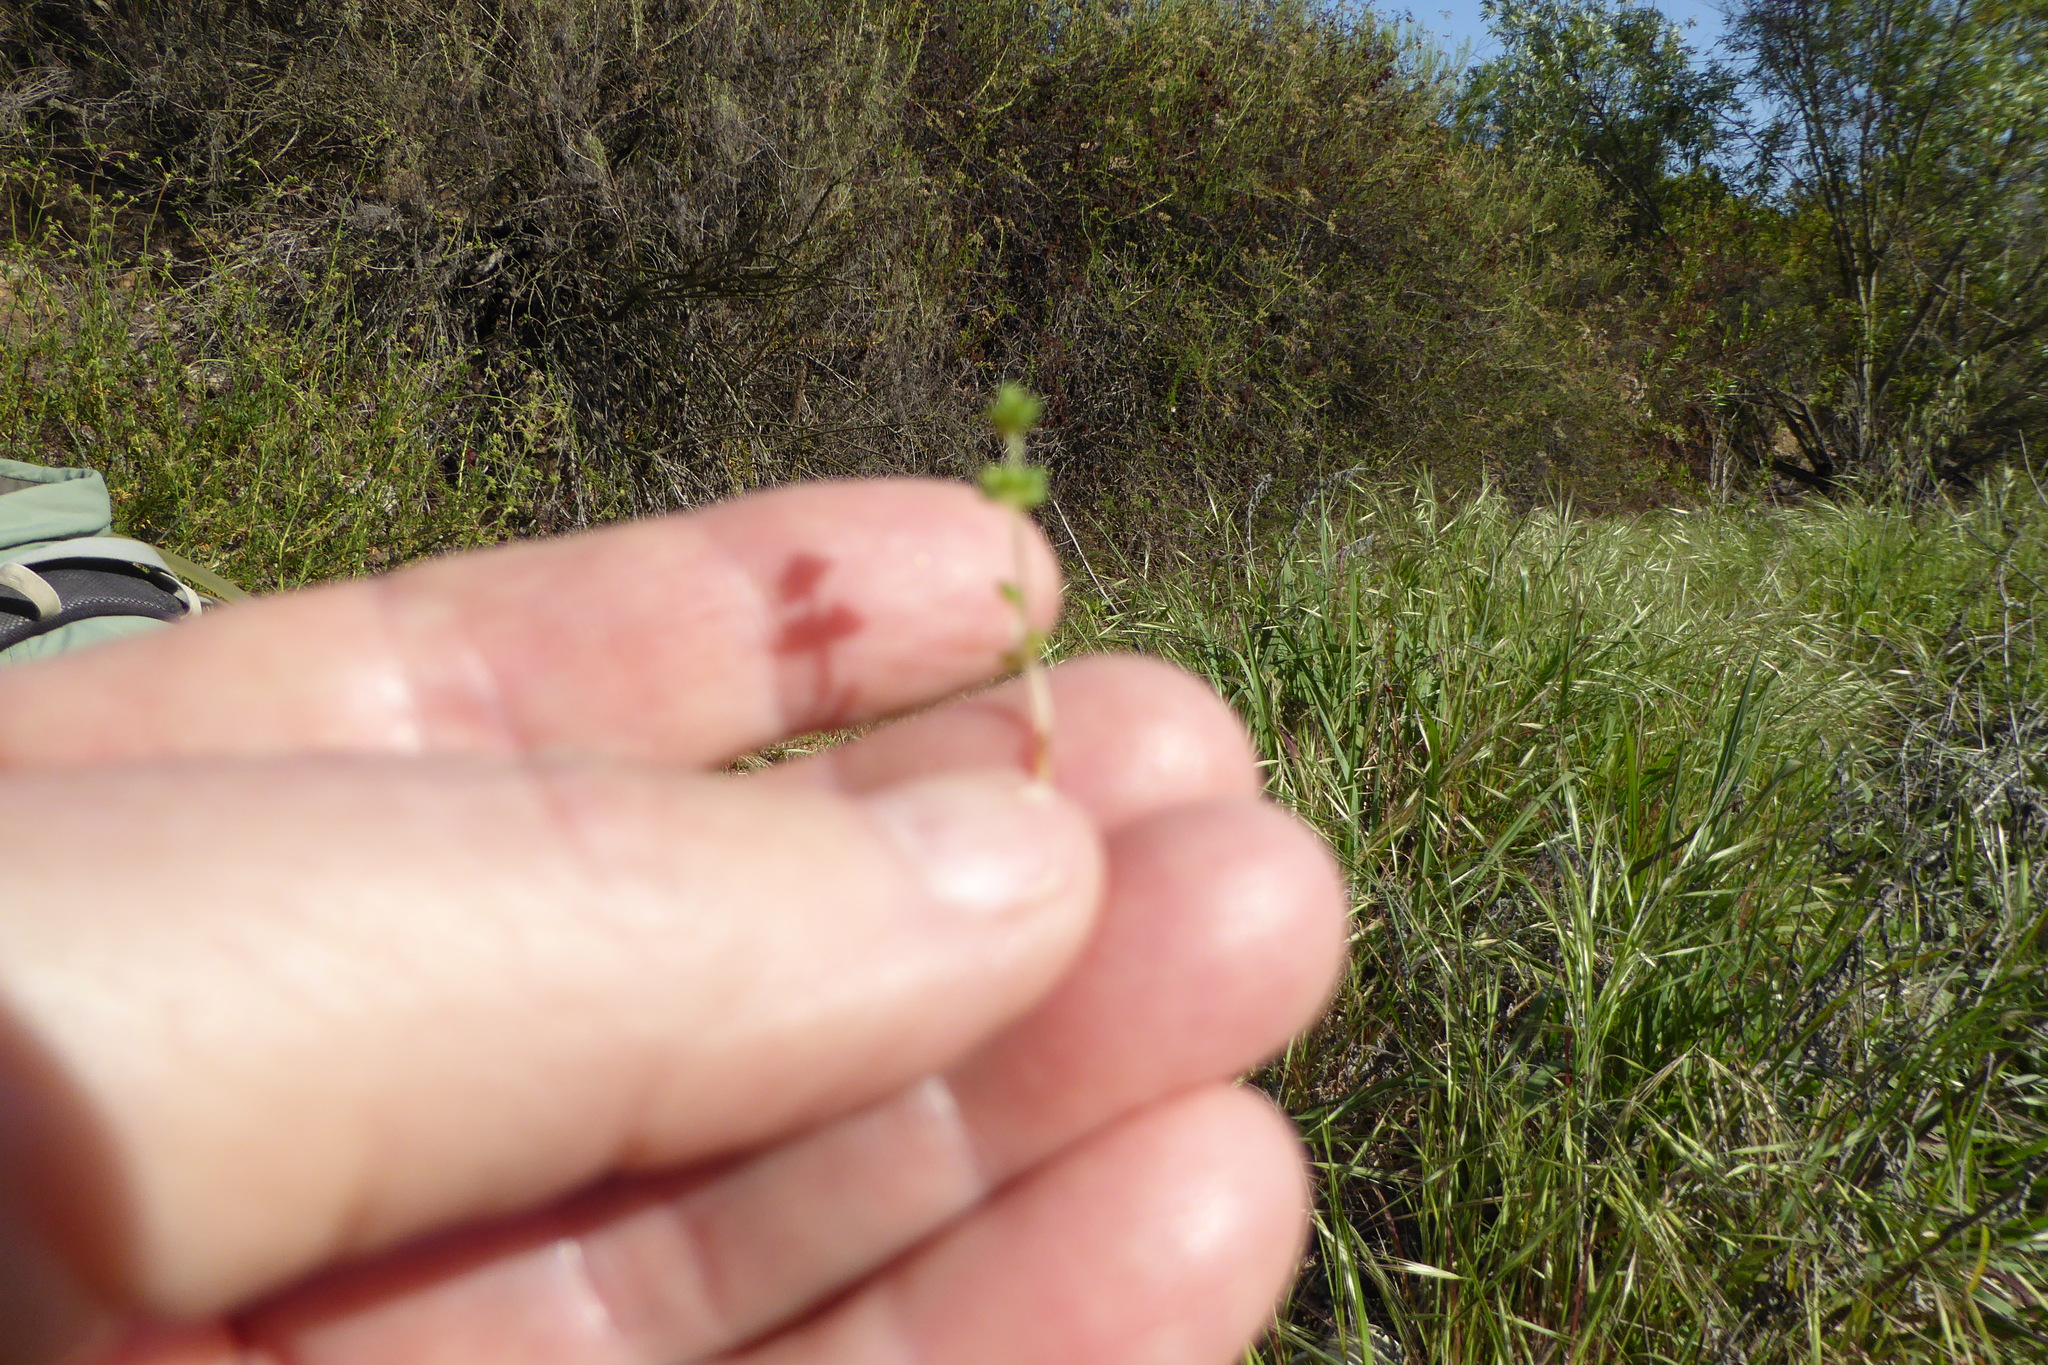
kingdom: Plantae
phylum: Tracheophyta
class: Magnoliopsida
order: Saxifragales
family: Crassulaceae
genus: Crassula
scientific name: Crassula connata
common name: Erect pygmyweed
